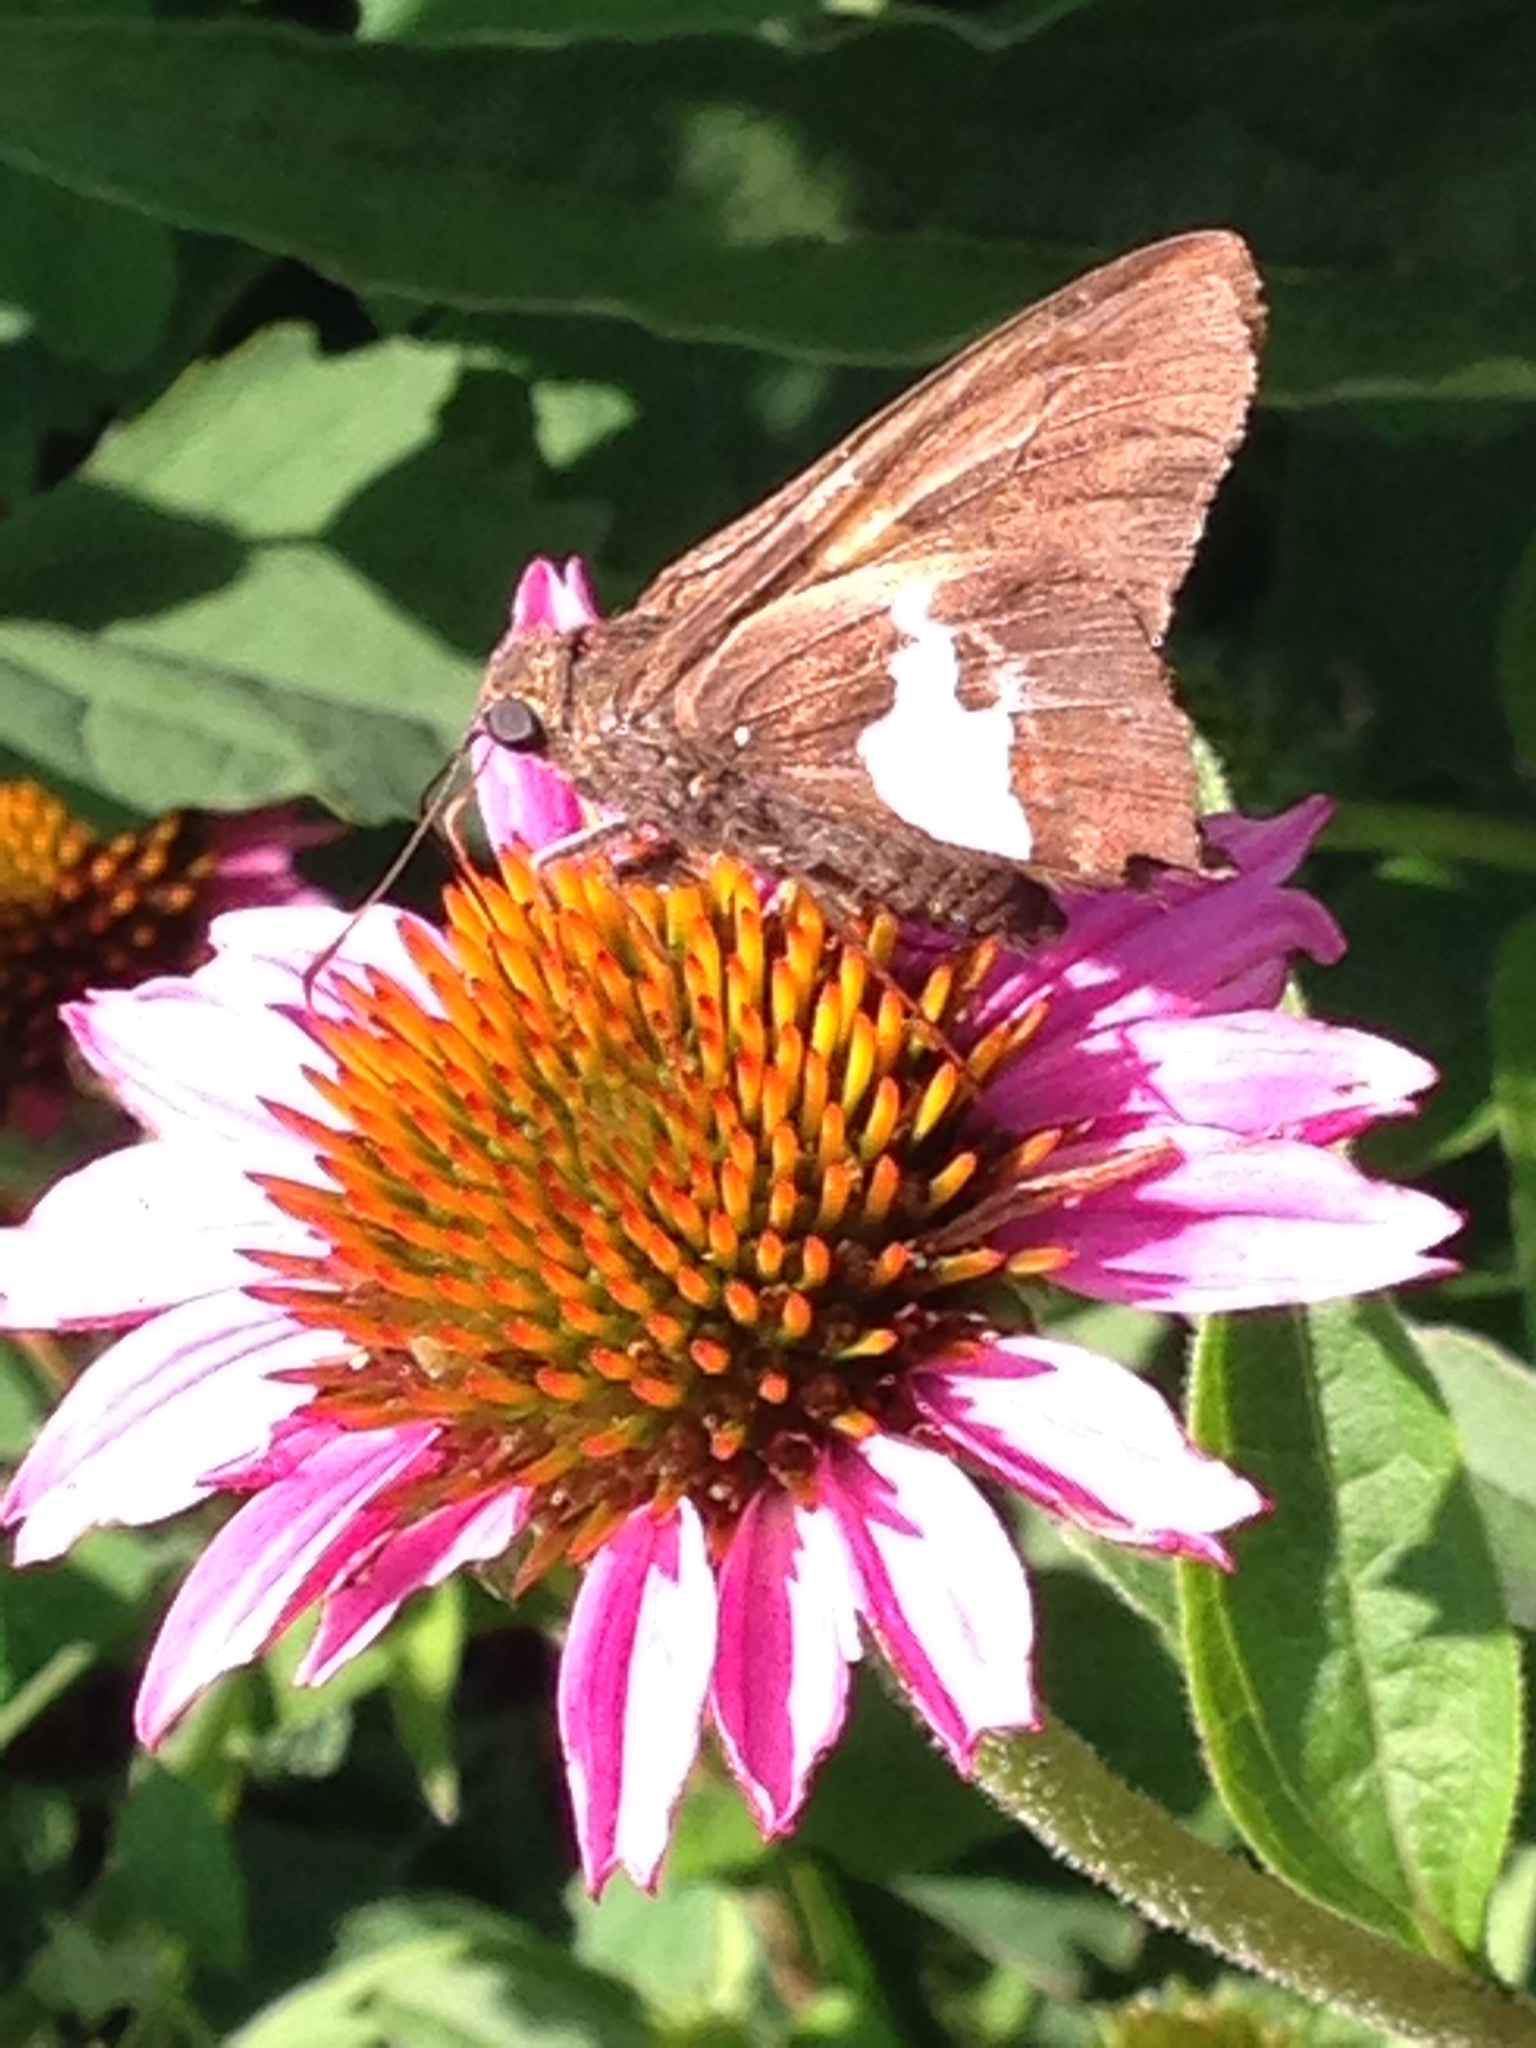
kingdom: Animalia
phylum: Arthropoda
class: Insecta
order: Lepidoptera
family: Hesperiidae
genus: Epargyreus
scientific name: Epargyreus clarus
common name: Silver-spotted skipper
